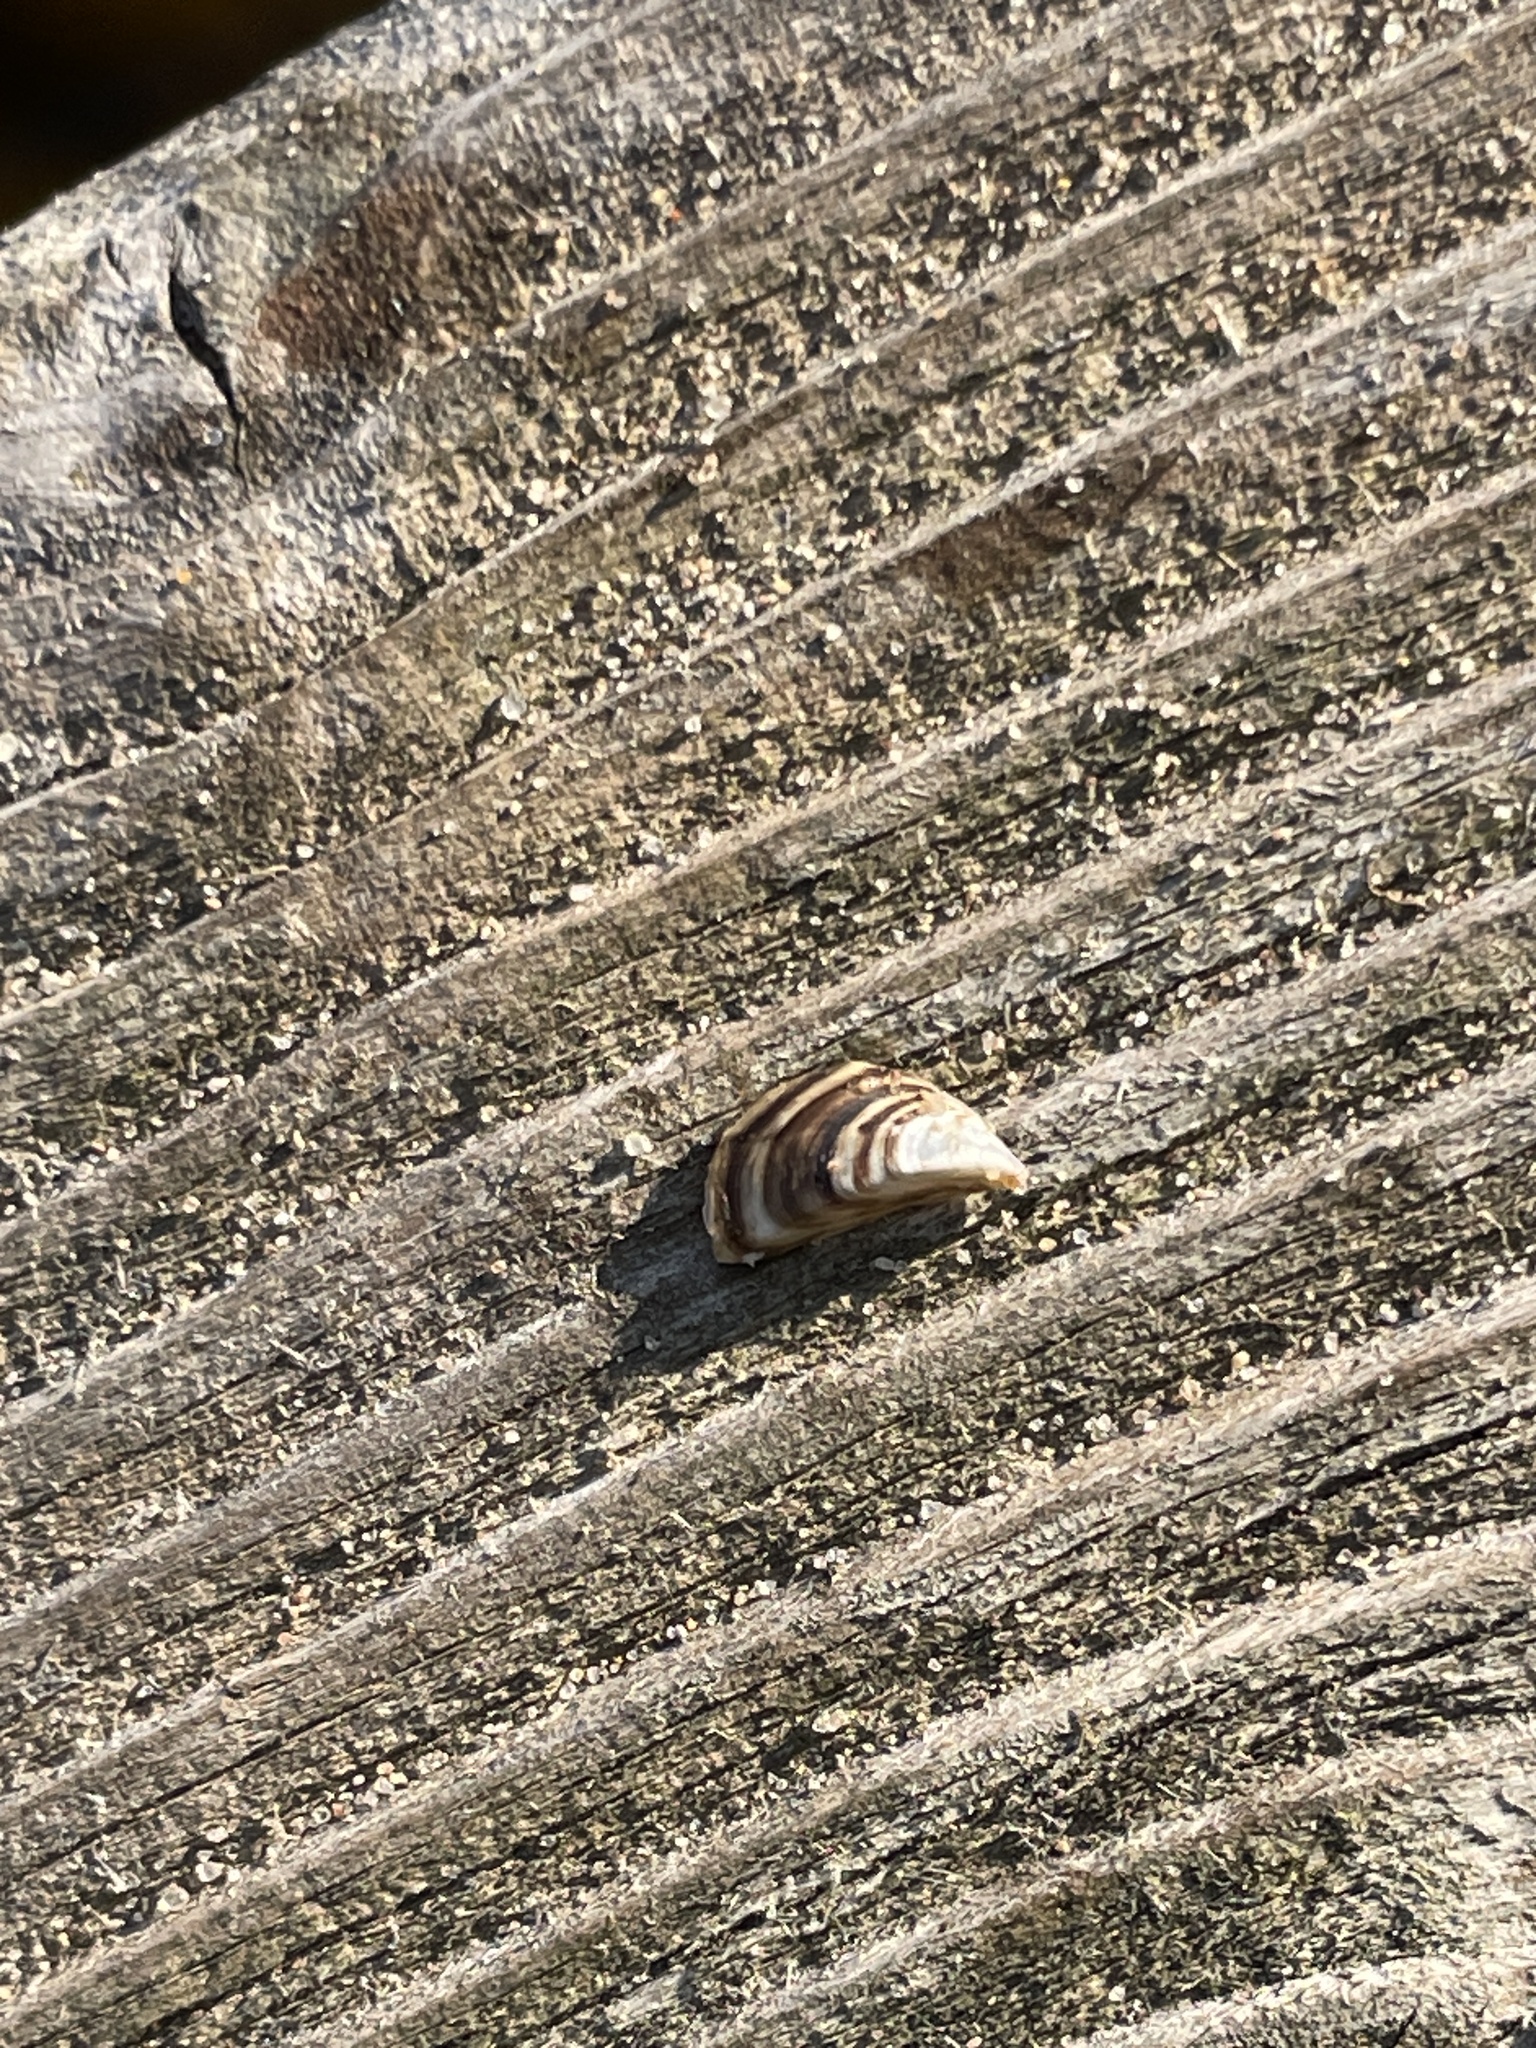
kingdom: Animalia
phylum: Mollusca
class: Bivalvia
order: Myida
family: Dreissenidae
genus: Dreissena
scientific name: Dreissena polymorpha
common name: Zebra mussel
